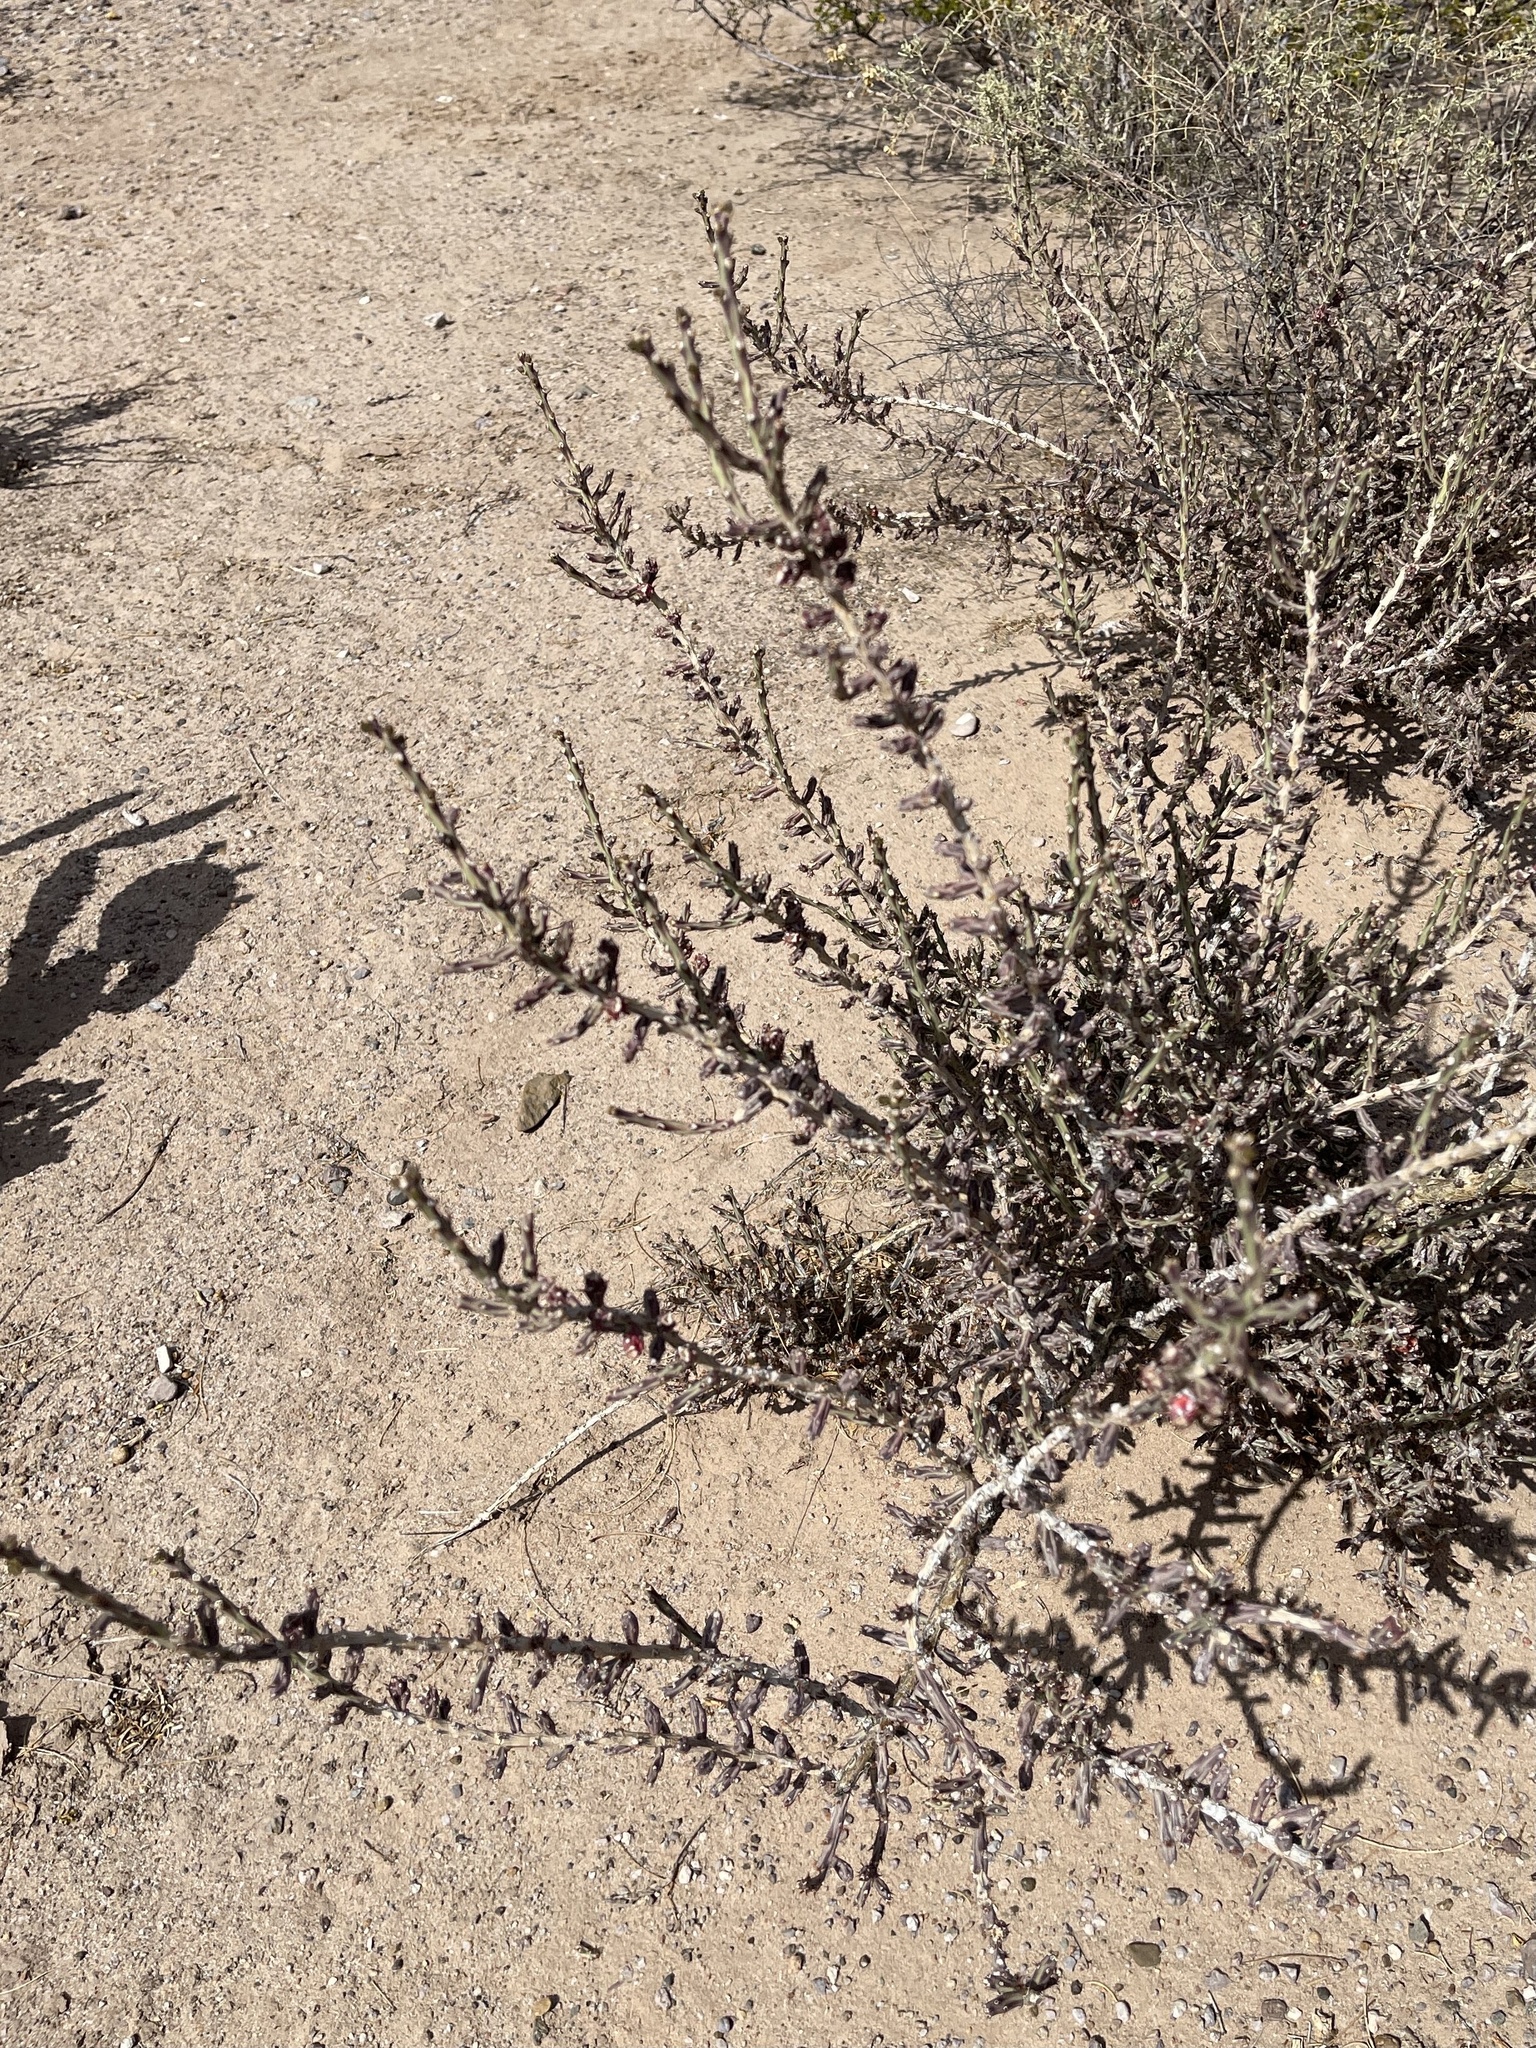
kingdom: Plantae
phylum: Tracheophyta
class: Magnoliopsida
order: Caryophyllales
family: Cactaceae
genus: Cylindropuntia
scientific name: Cylindropuntia leptocaulis
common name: Christmas cactus
